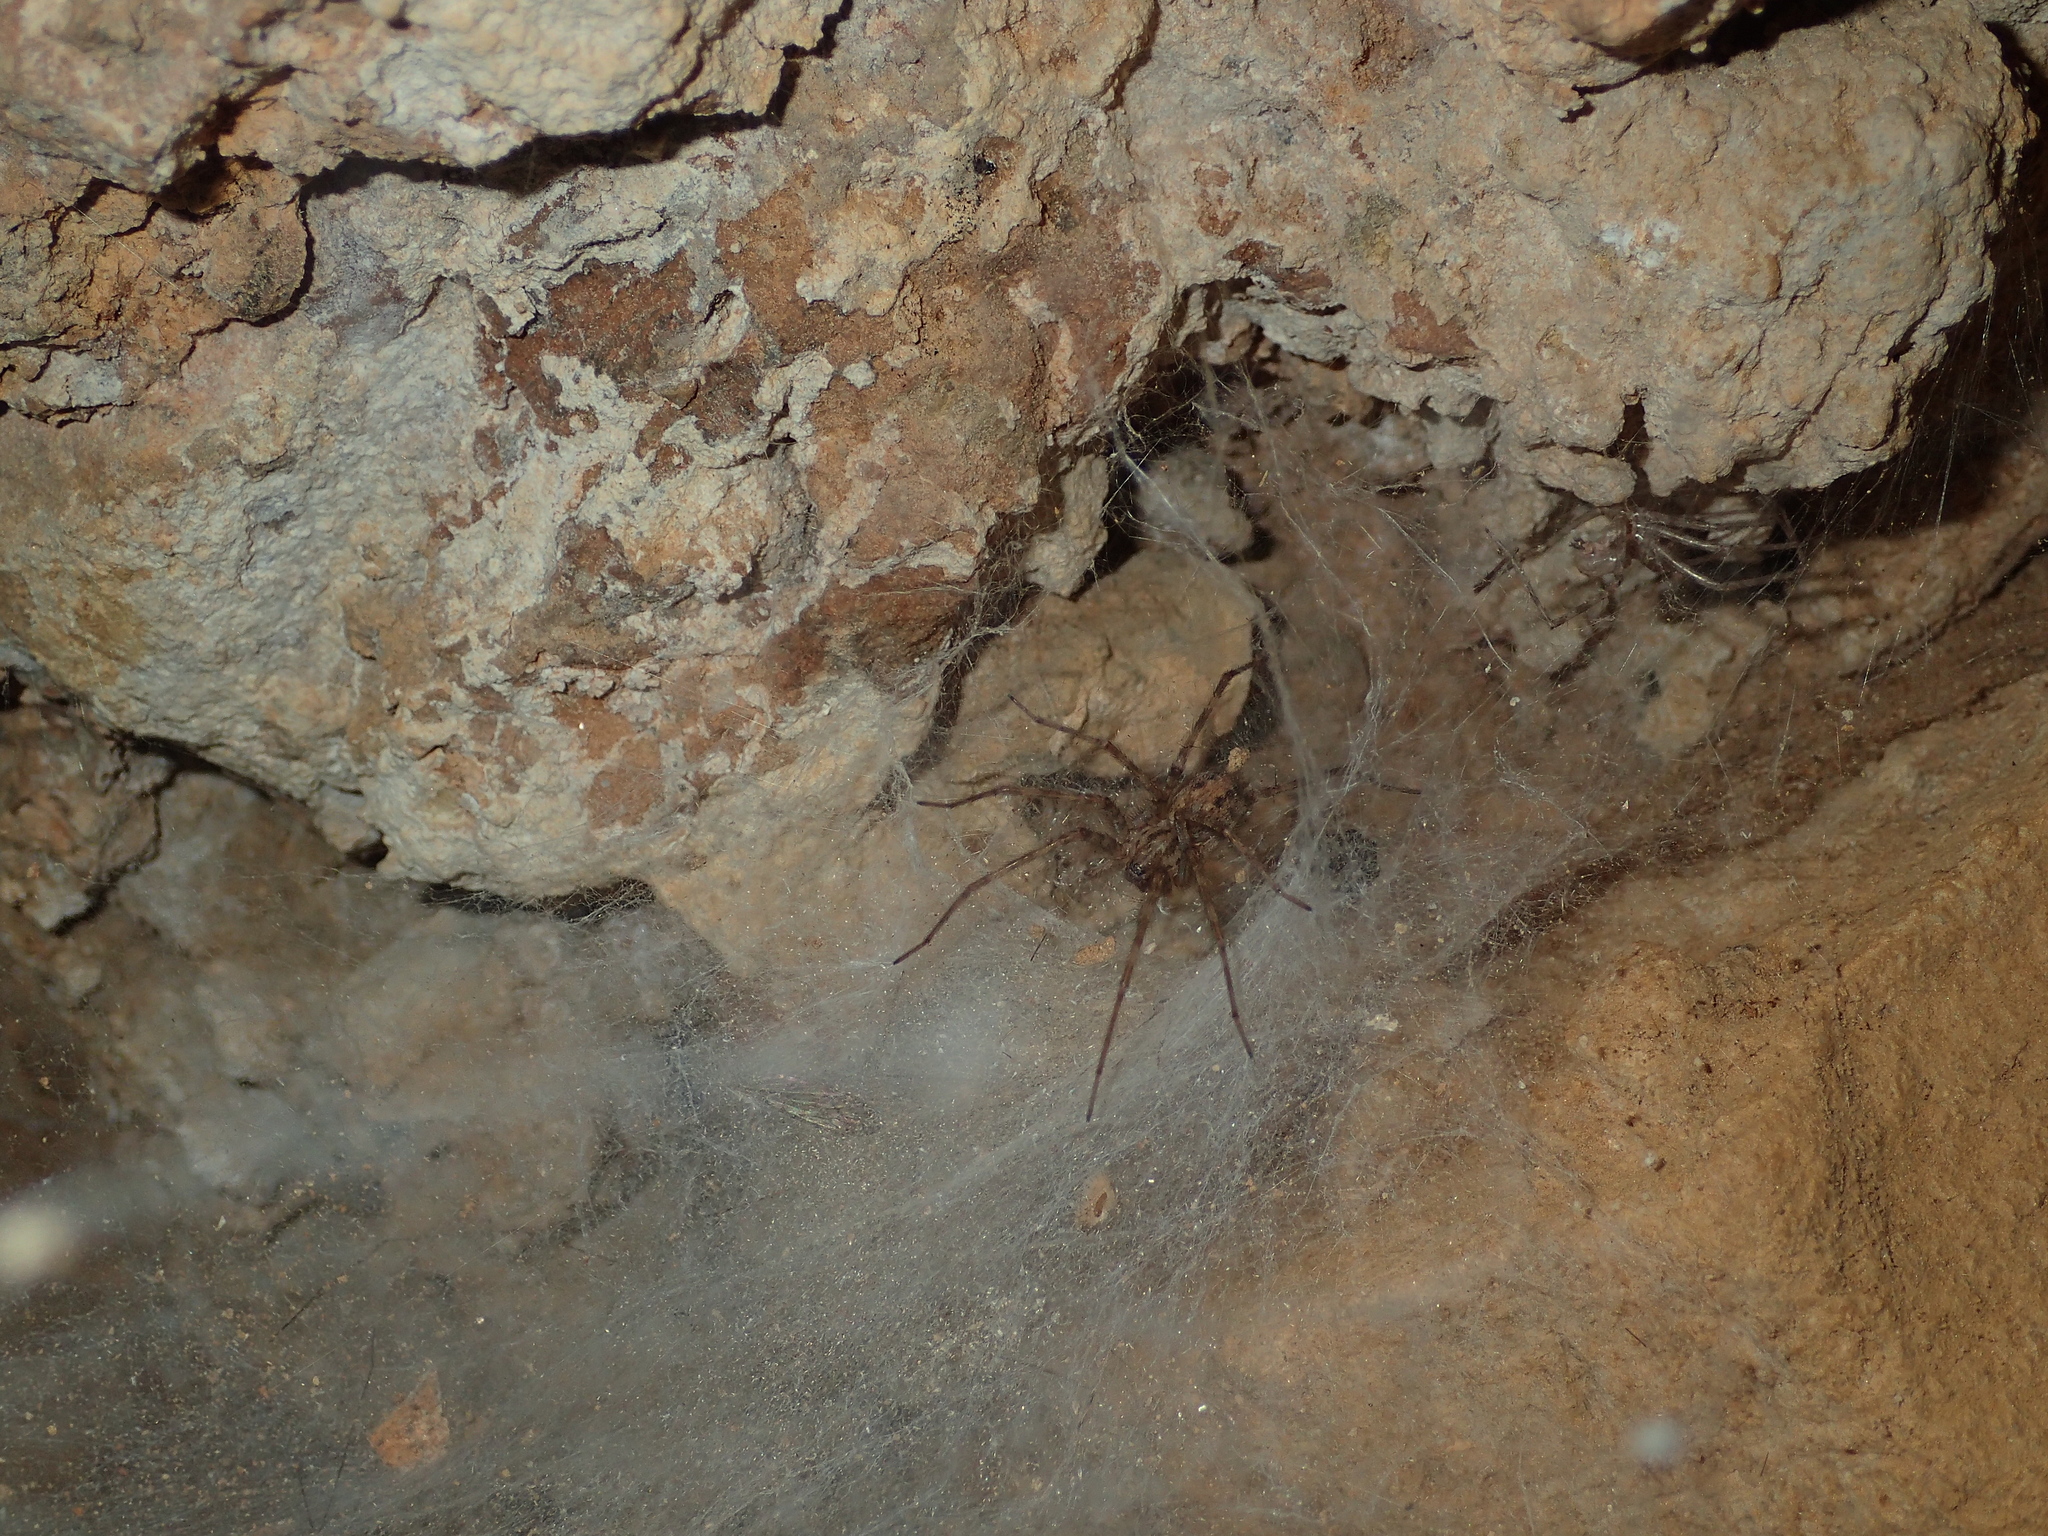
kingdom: Animalia
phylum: Arthropoda
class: Arachnida
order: Araneae
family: Agelenidae
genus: Tegenaria
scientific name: Tegenaria
